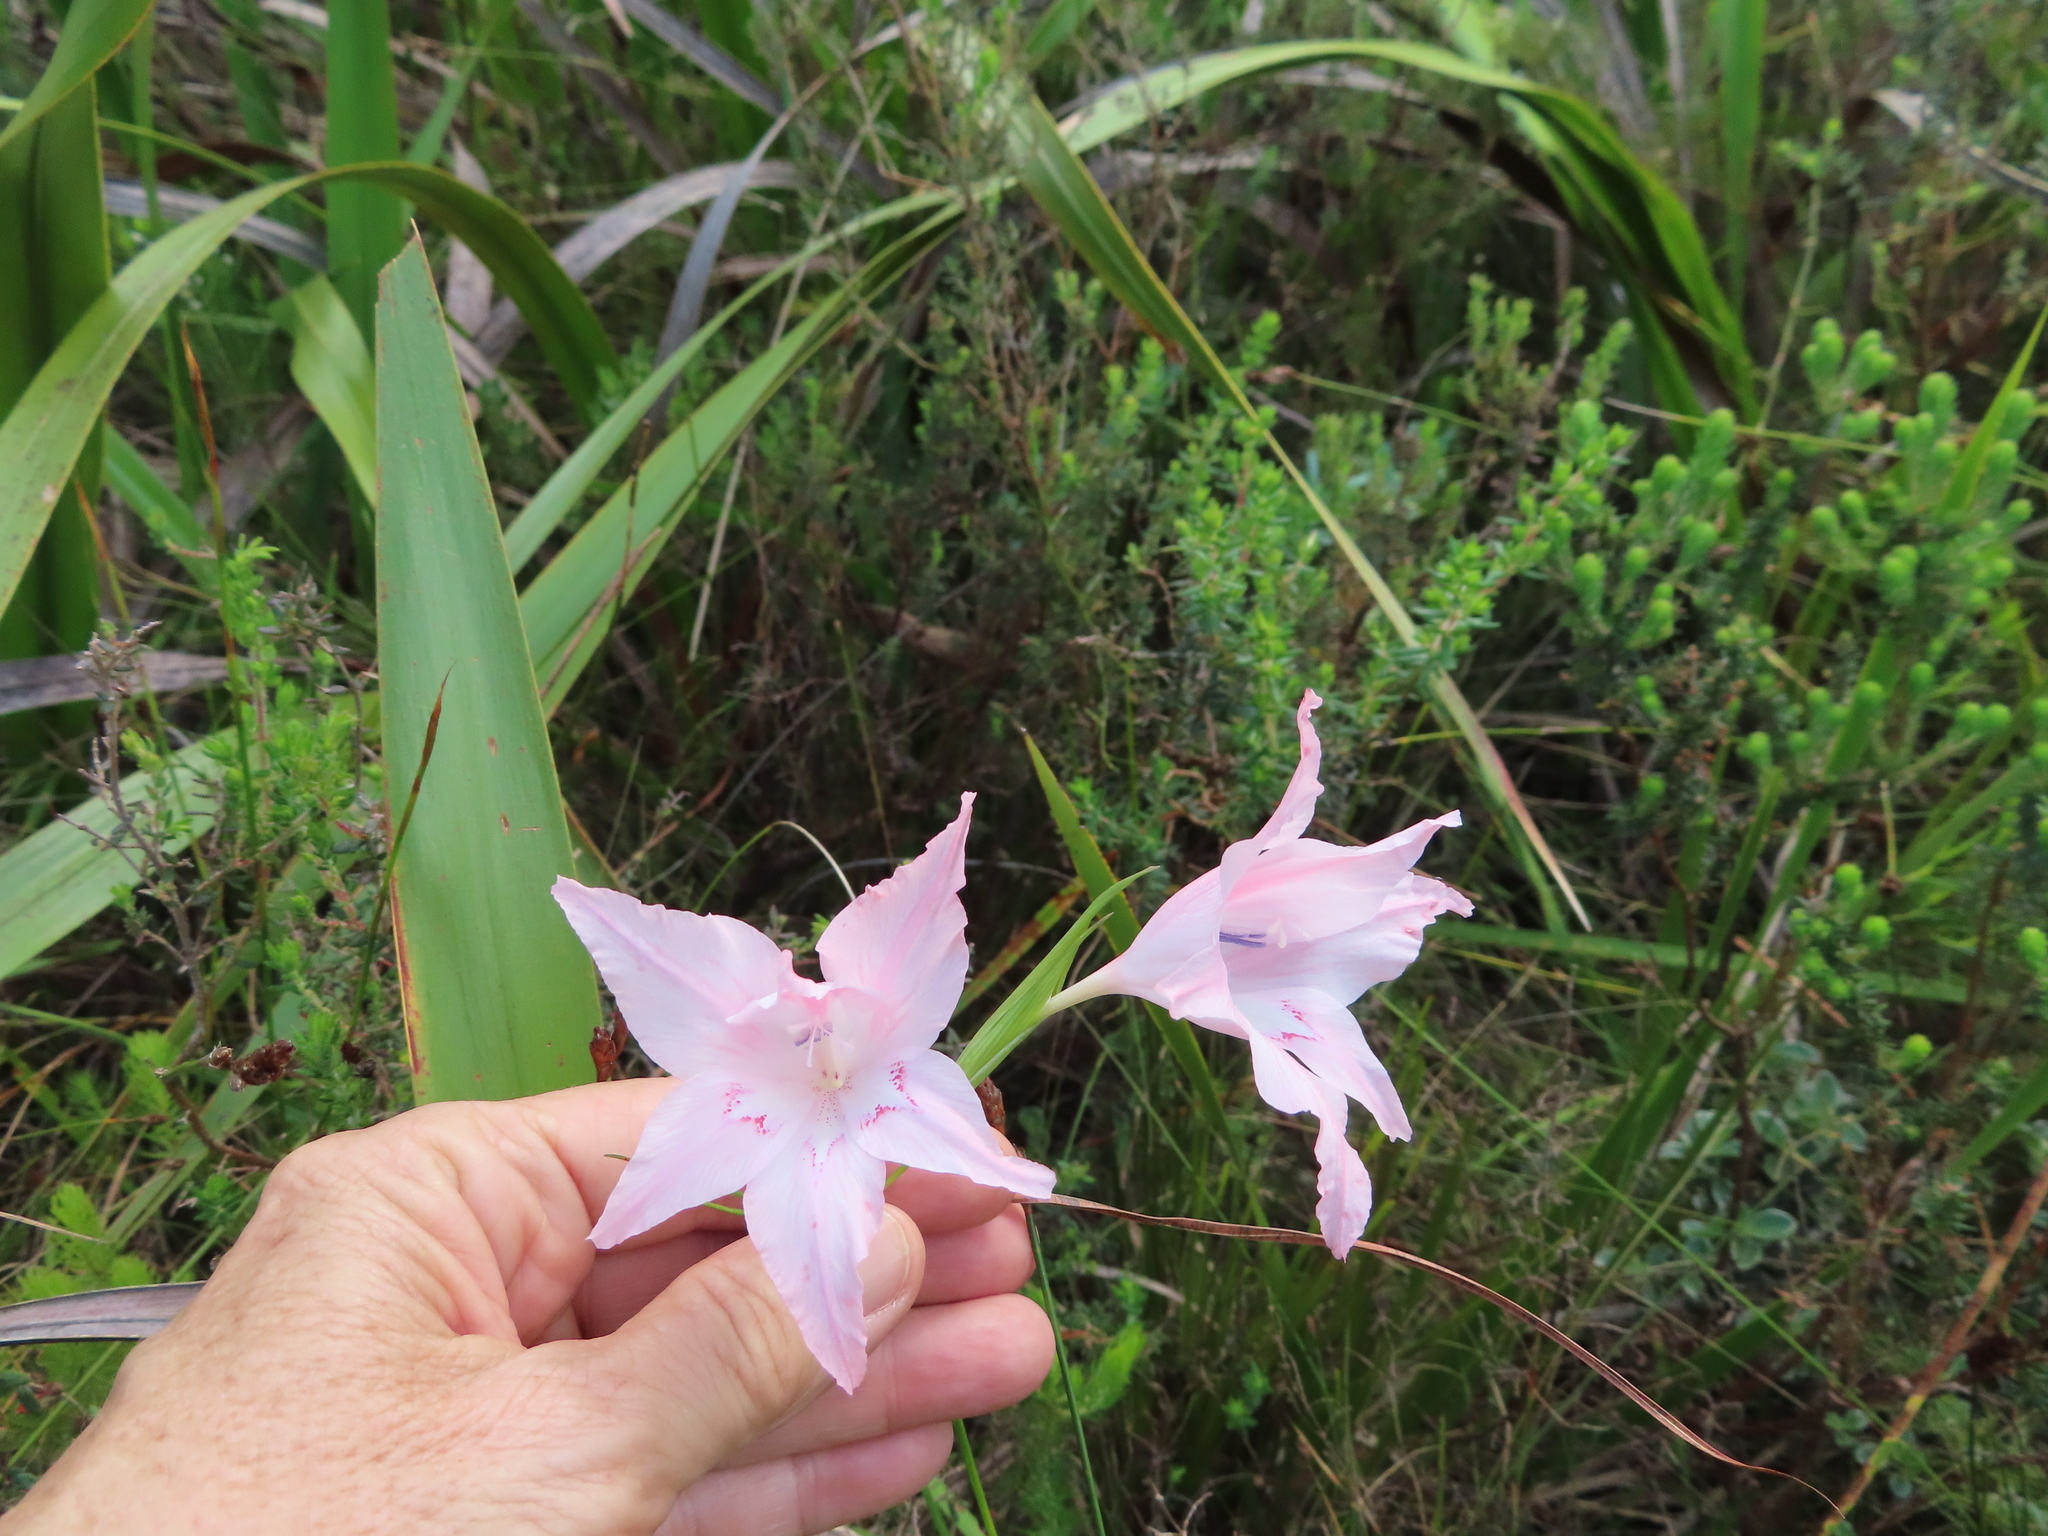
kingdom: Plantae
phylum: Tracheophyta
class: Liliopsida
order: Asparagales
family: Iridaceae
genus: Gladiolus
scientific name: Gladiolus virgatus
